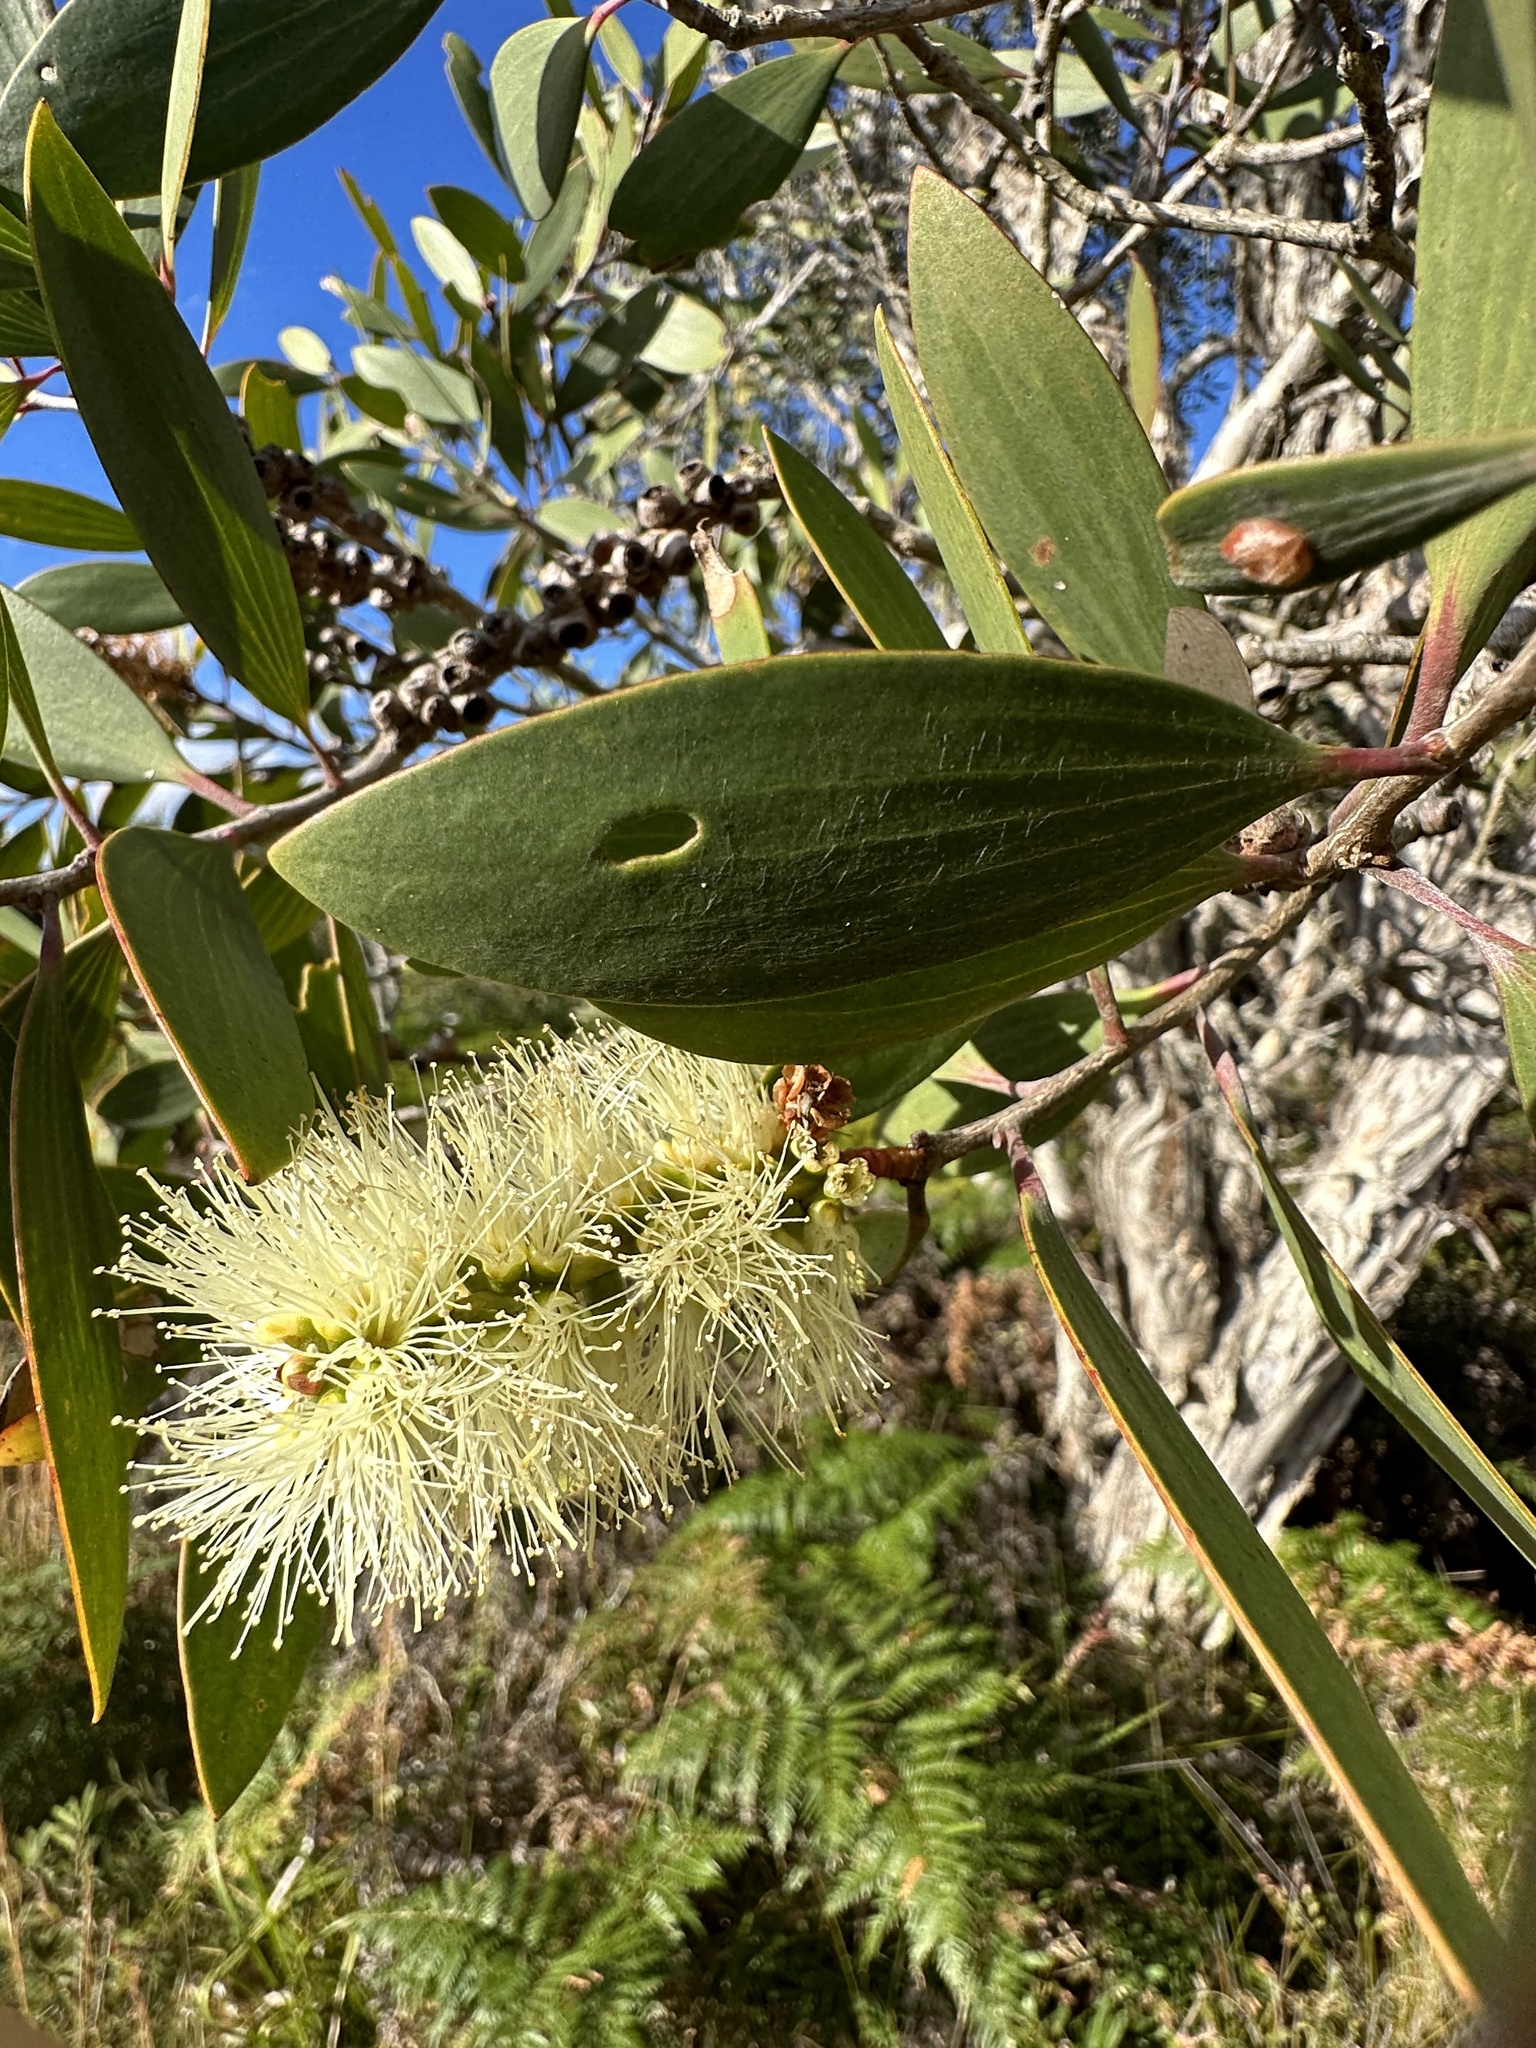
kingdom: Plantae
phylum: Tracheophyta
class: Magnoliopsida
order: Myrtales
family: Myrtaceae
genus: Melaleuca
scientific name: Melaleuca quinquenervia
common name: Punktree
